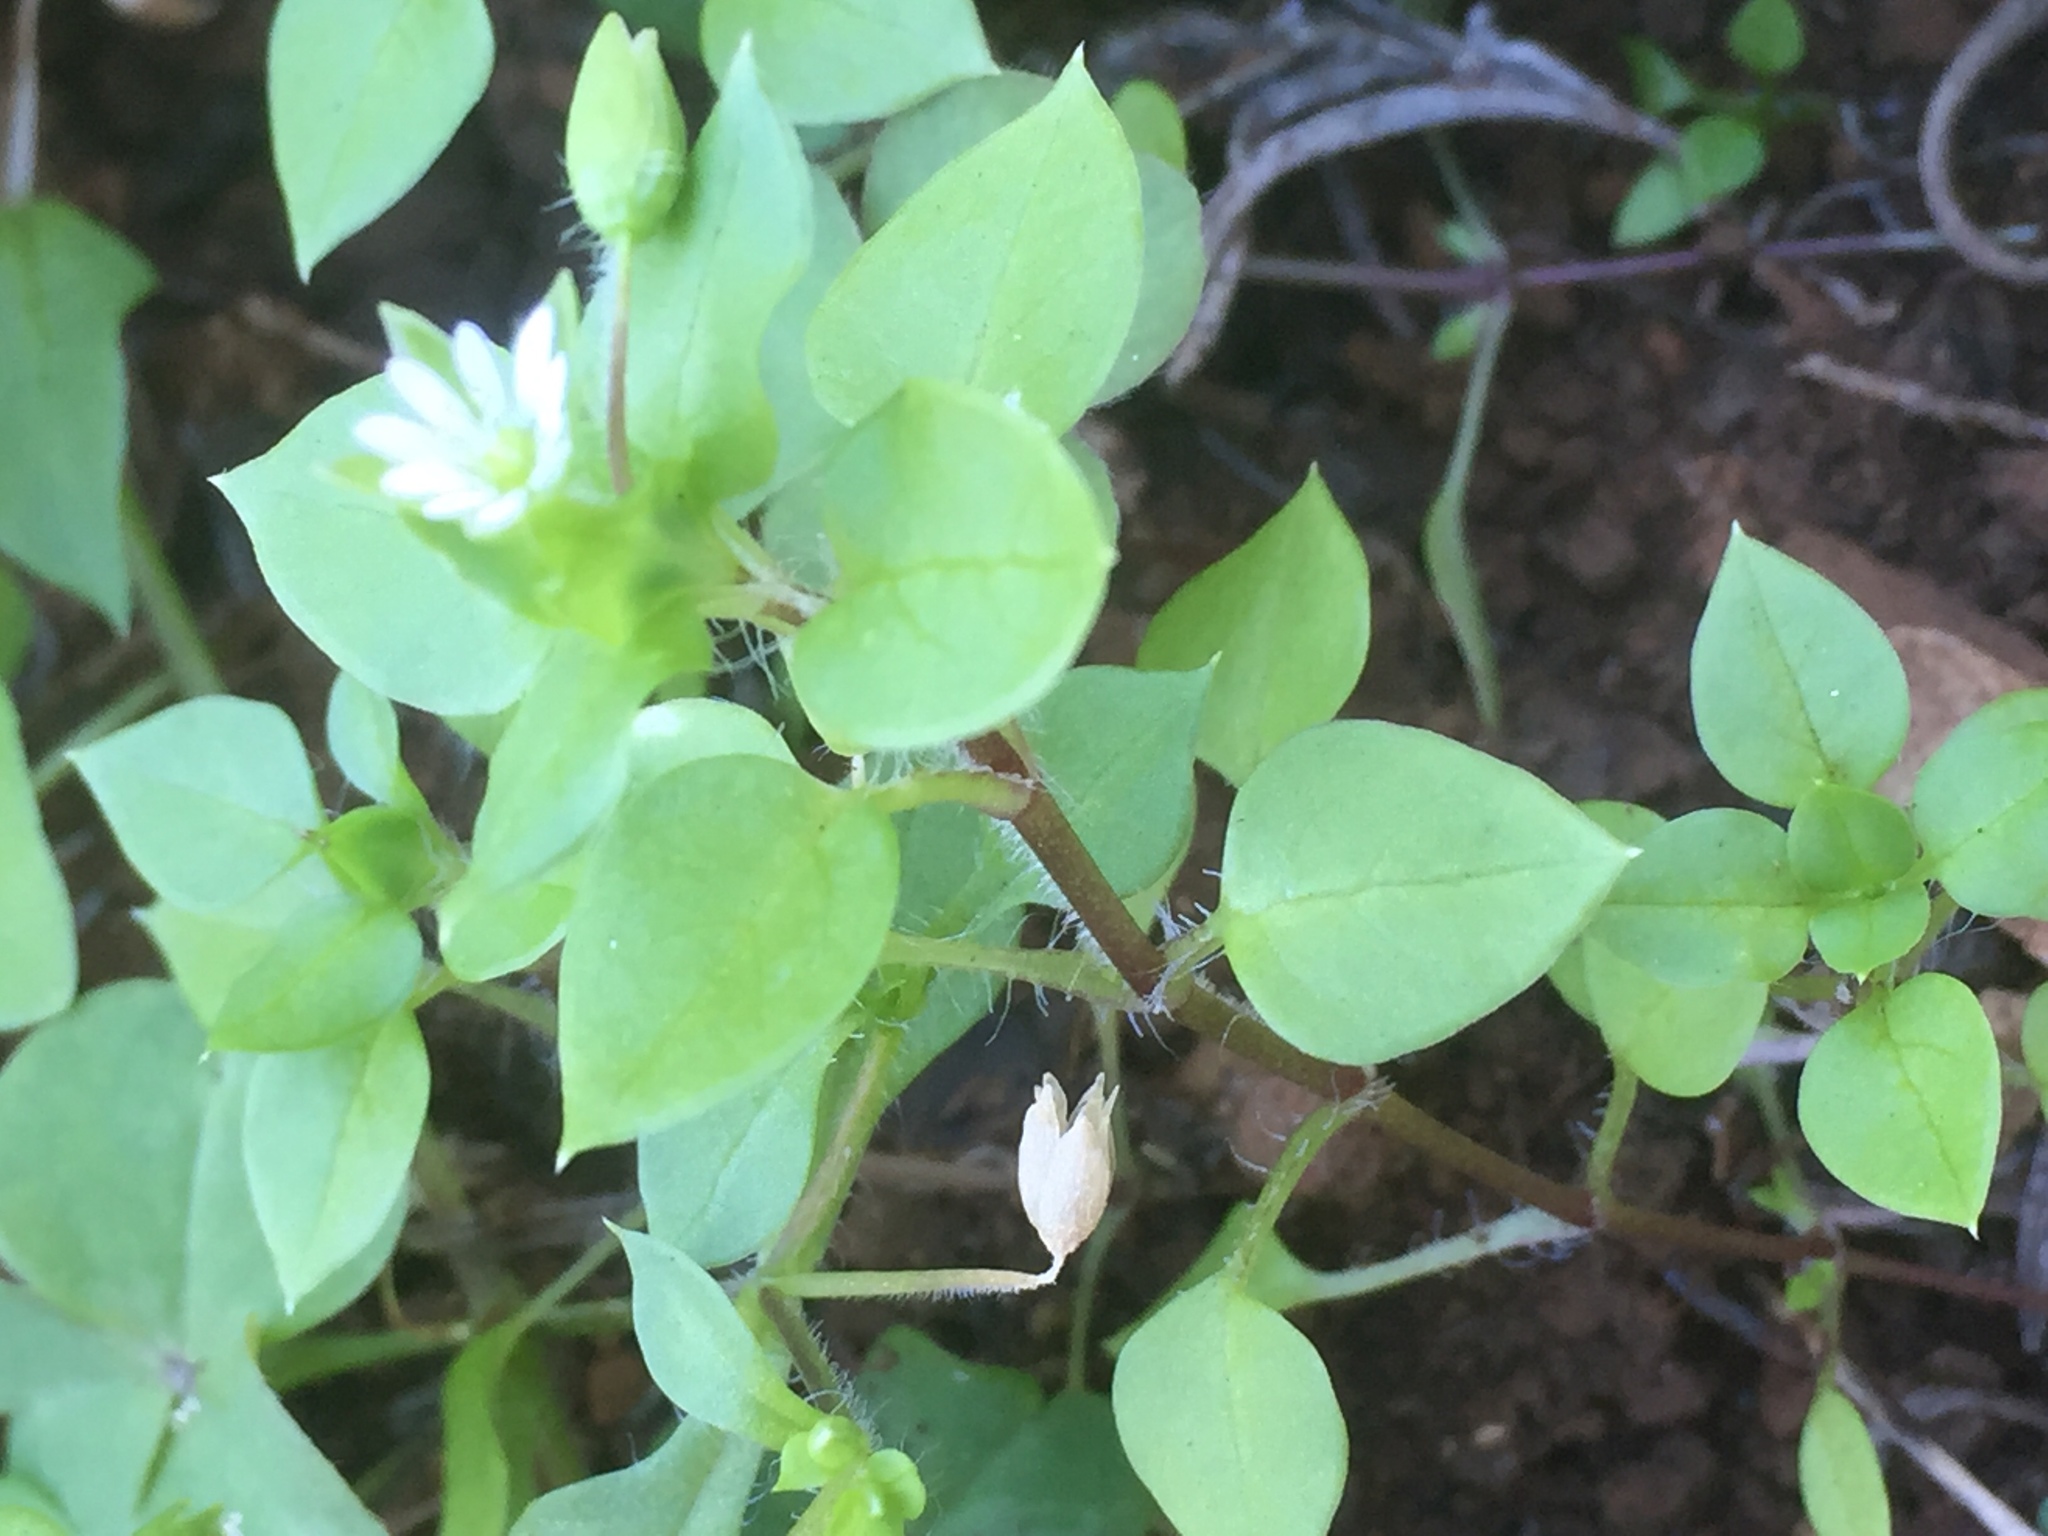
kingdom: Plantae
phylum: Tracheophyta
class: Magnoliopsida
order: Caryophyllales
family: Caryophyllaceae
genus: Stellaria
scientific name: Stellaria media
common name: Common chickweed
